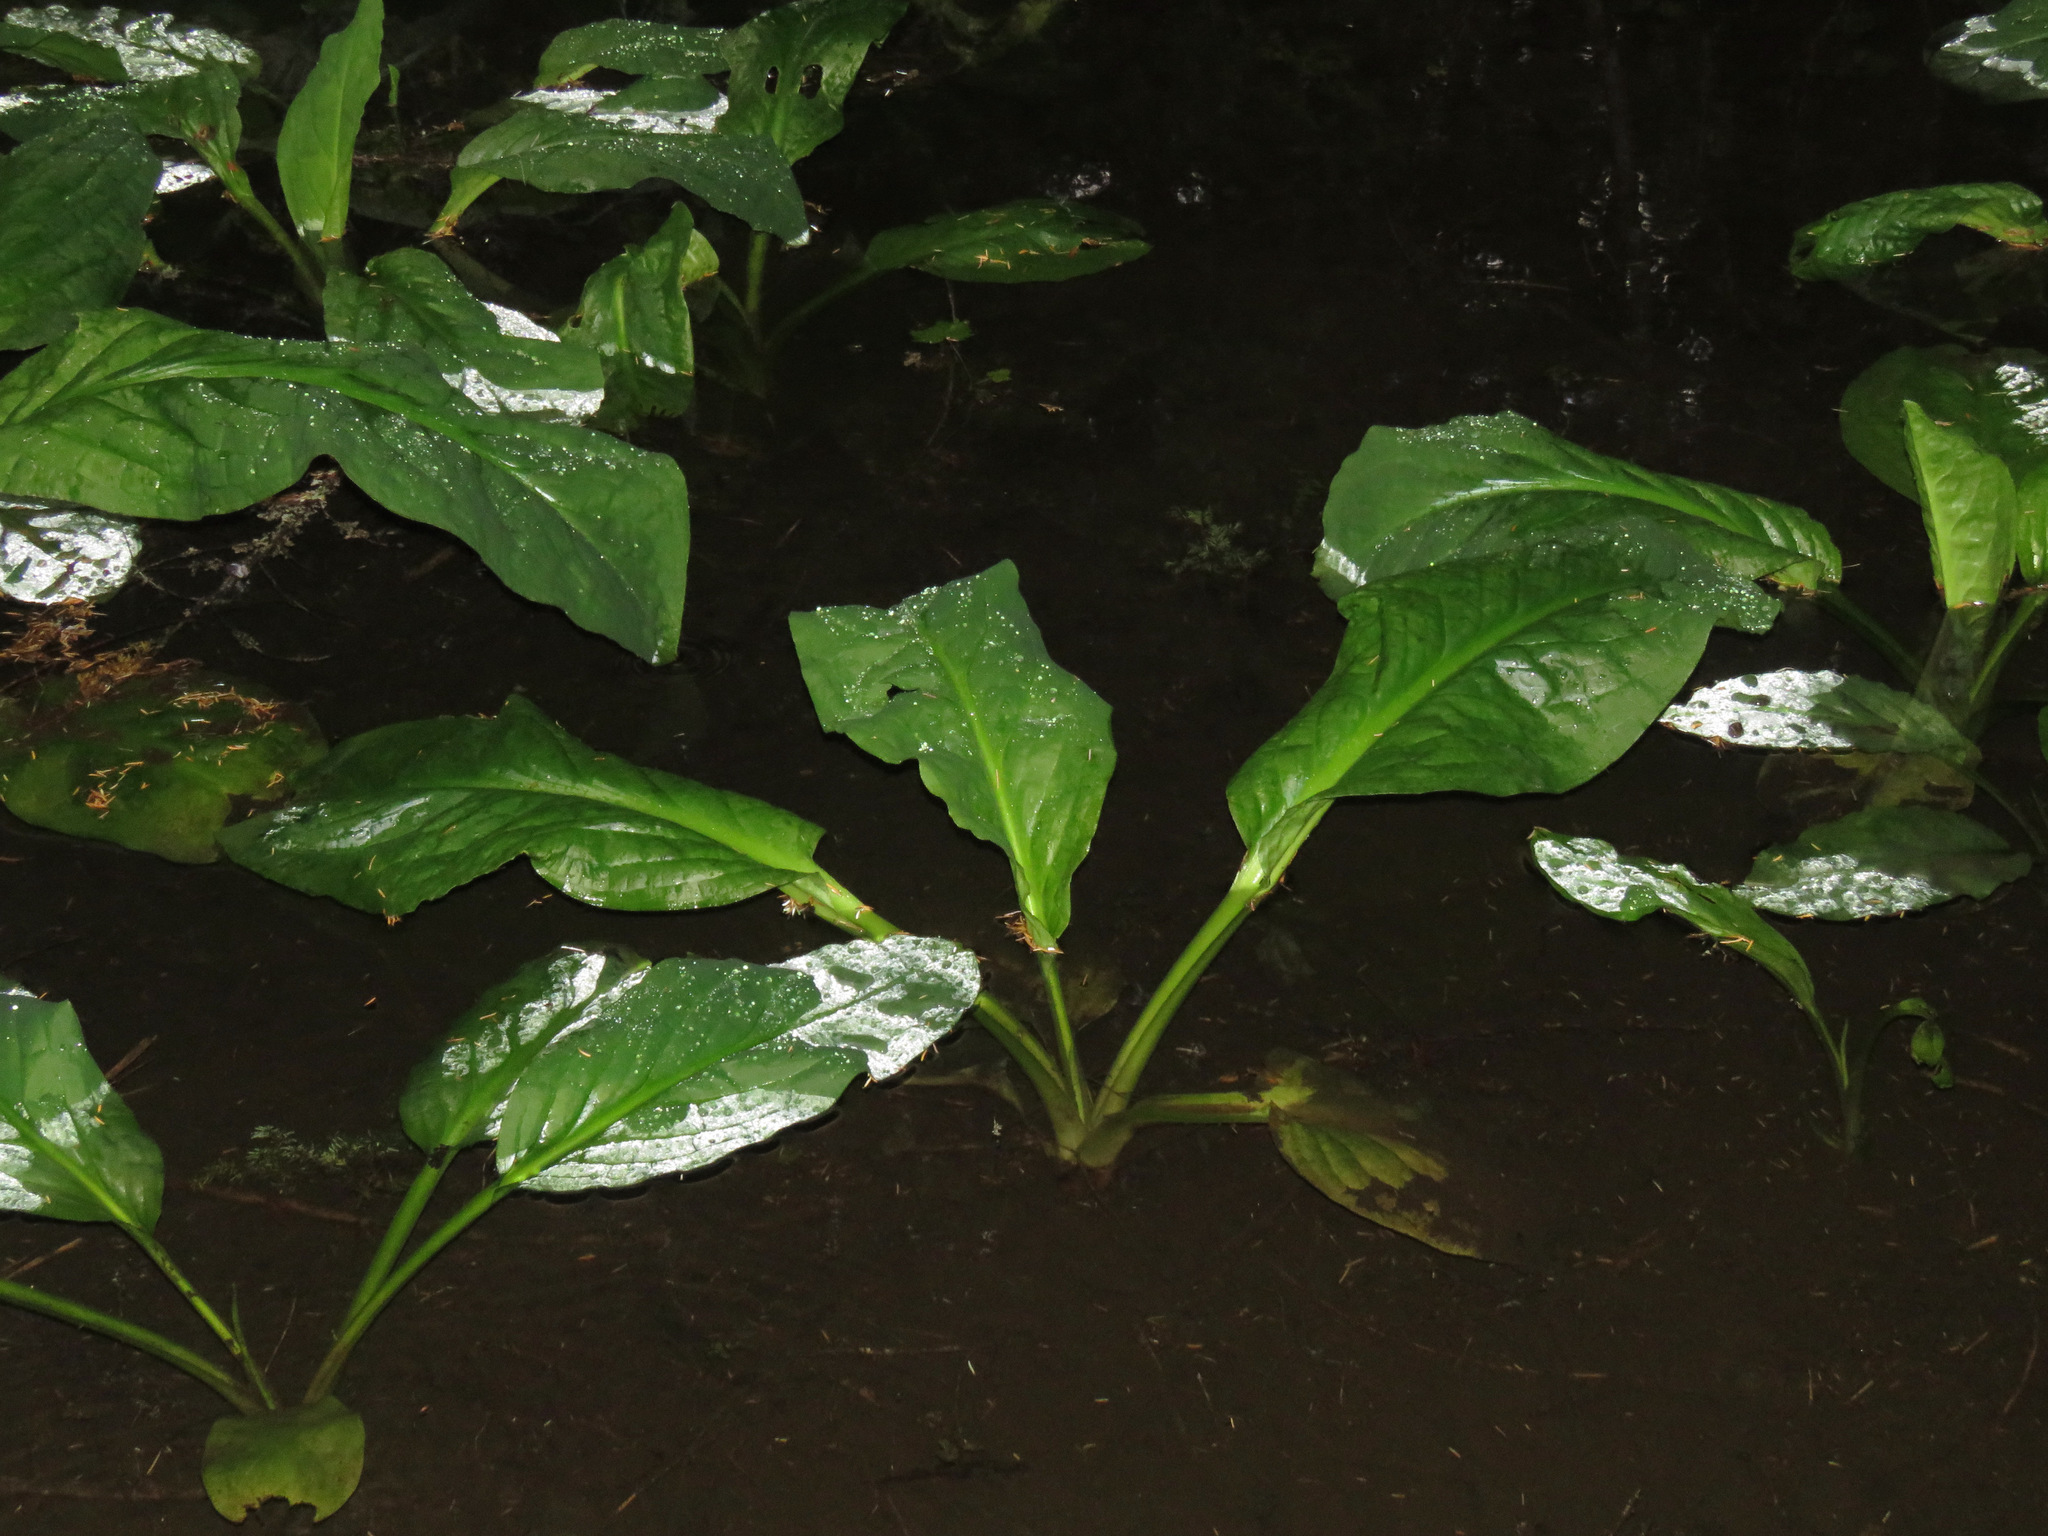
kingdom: Plantae
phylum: Tracheophyta
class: Liliopsida
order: Alismatales
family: Araceae
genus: Lysichiton
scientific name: Lysichiton americanus
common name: American skunk cabbage
